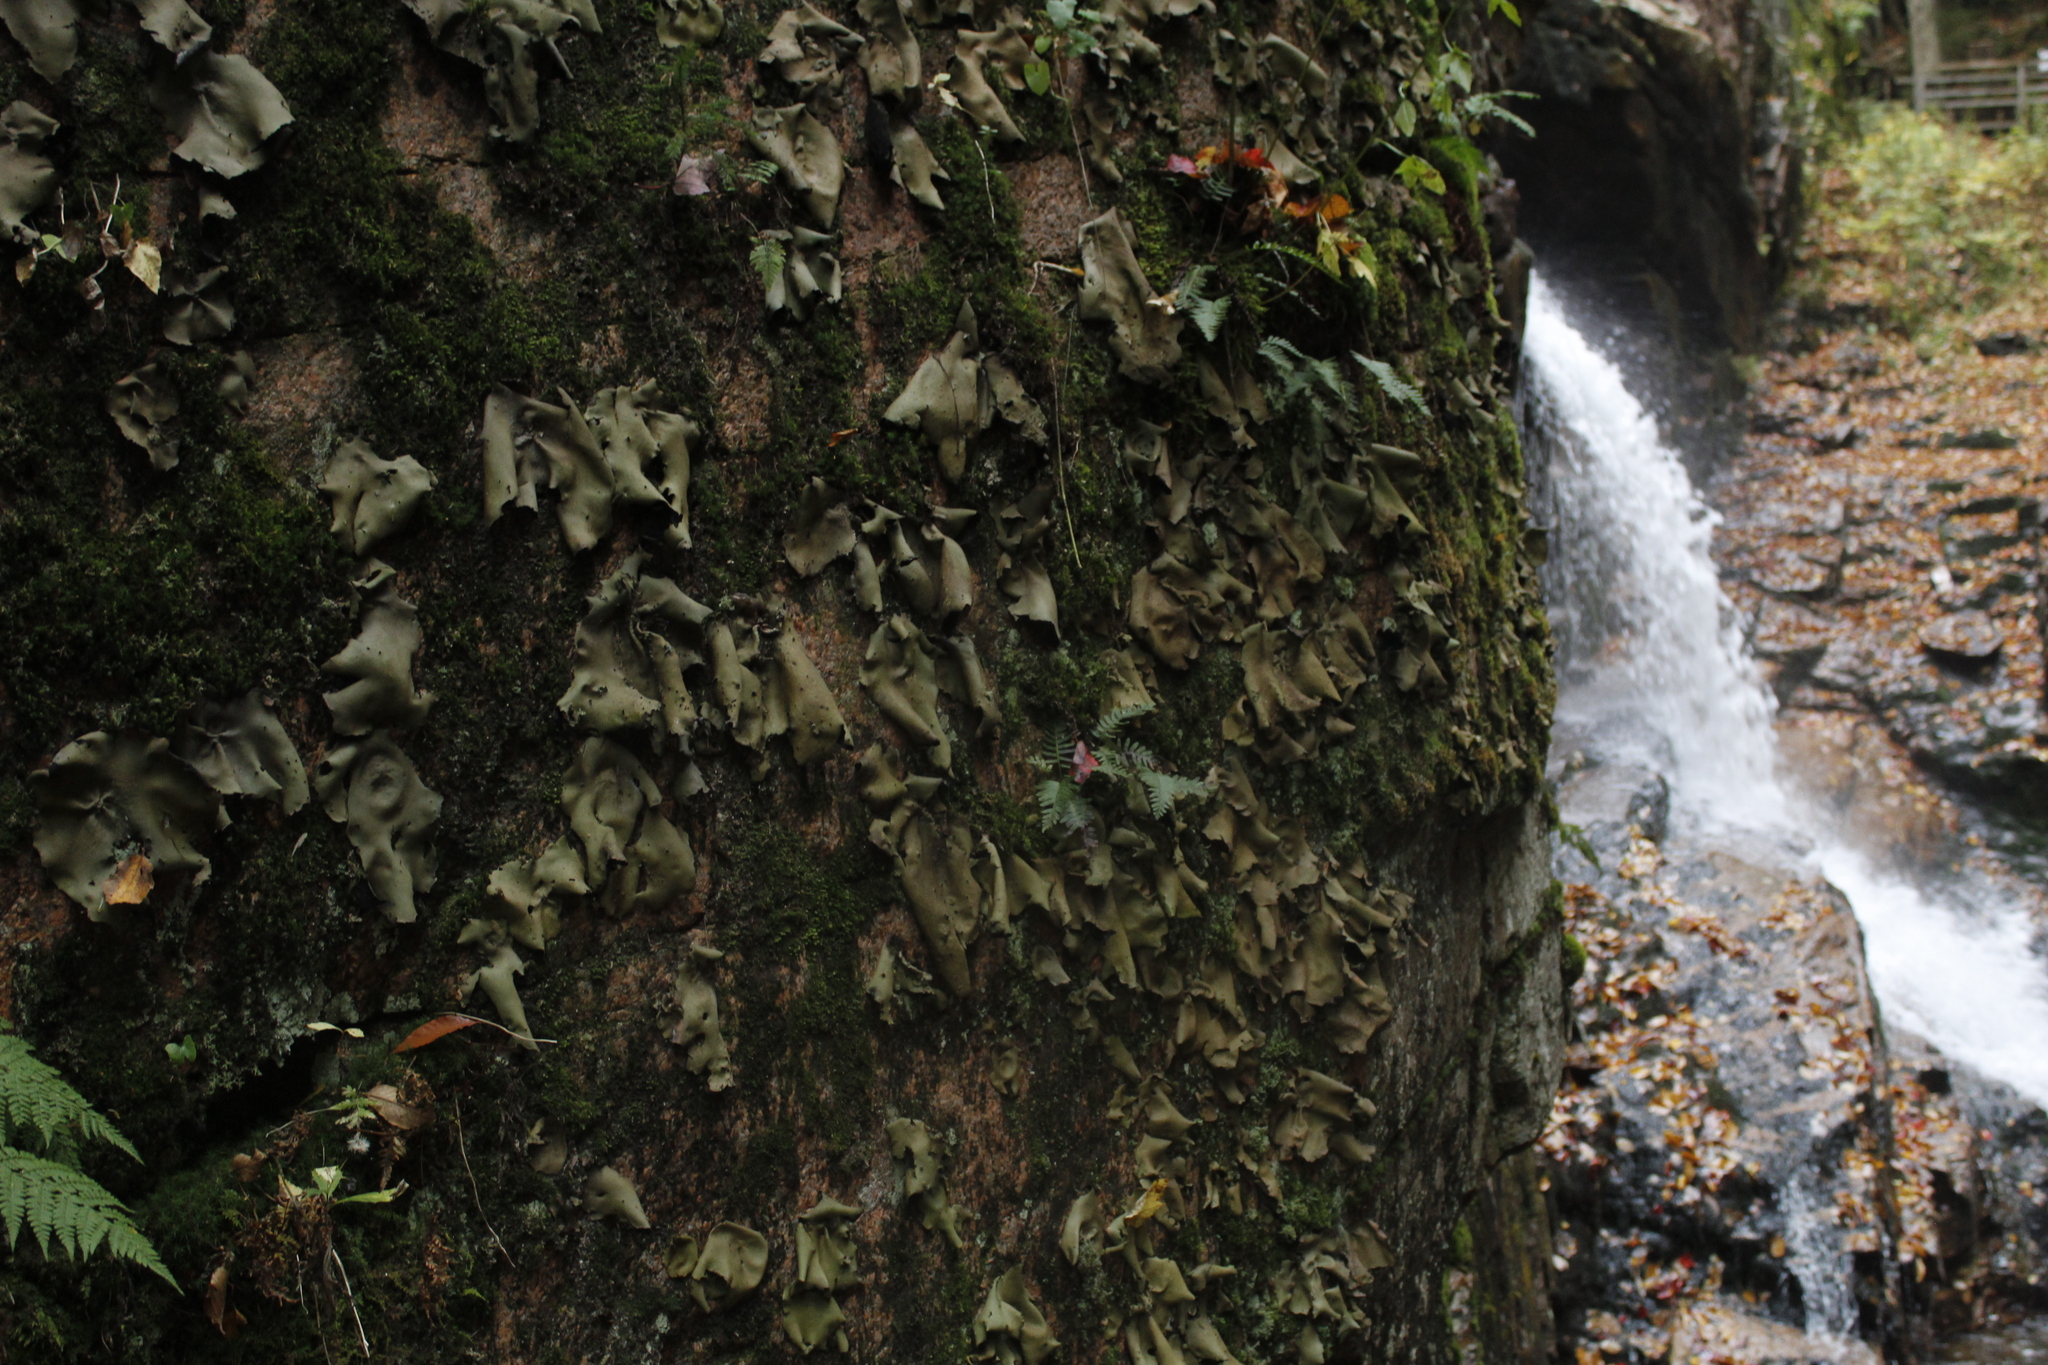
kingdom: Fungi
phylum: Ascomycota
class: Lecanoromycetes
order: Umbilicariales
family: Umbilicariaceae
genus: Umbilicaria
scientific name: Umbilicaria mammulata
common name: Smooth rock tripe
